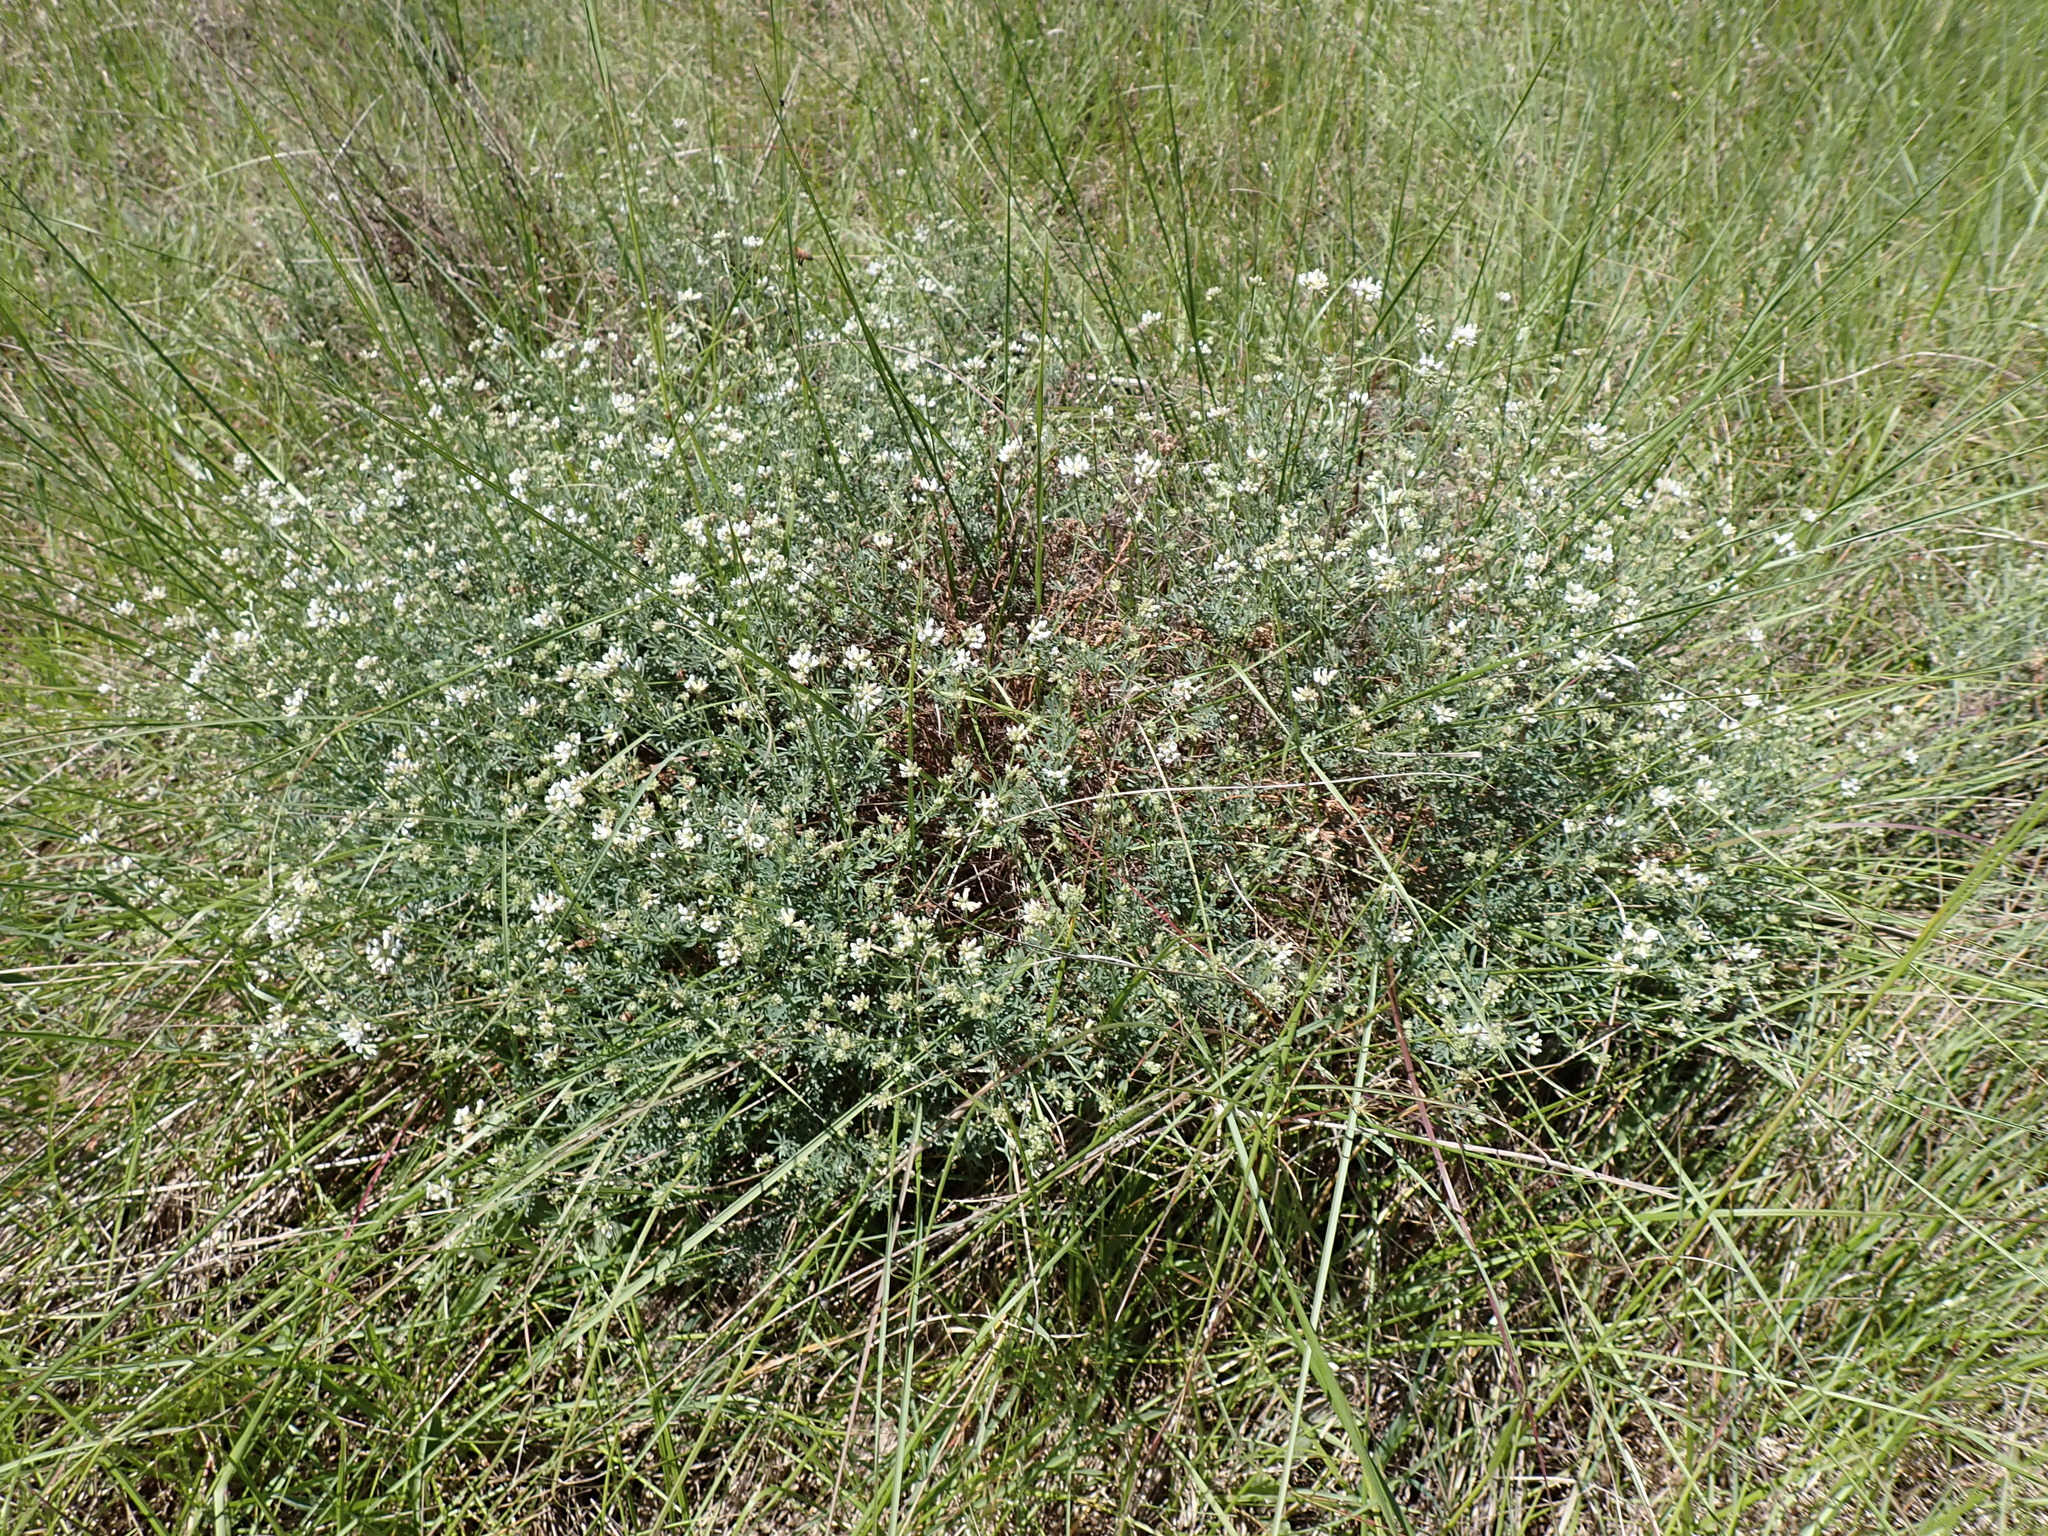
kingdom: Plantae
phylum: Tracheophyta
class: Magnoliopsida
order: Fabales
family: Fabaceae
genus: Lotus
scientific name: Lotus dorycnium
